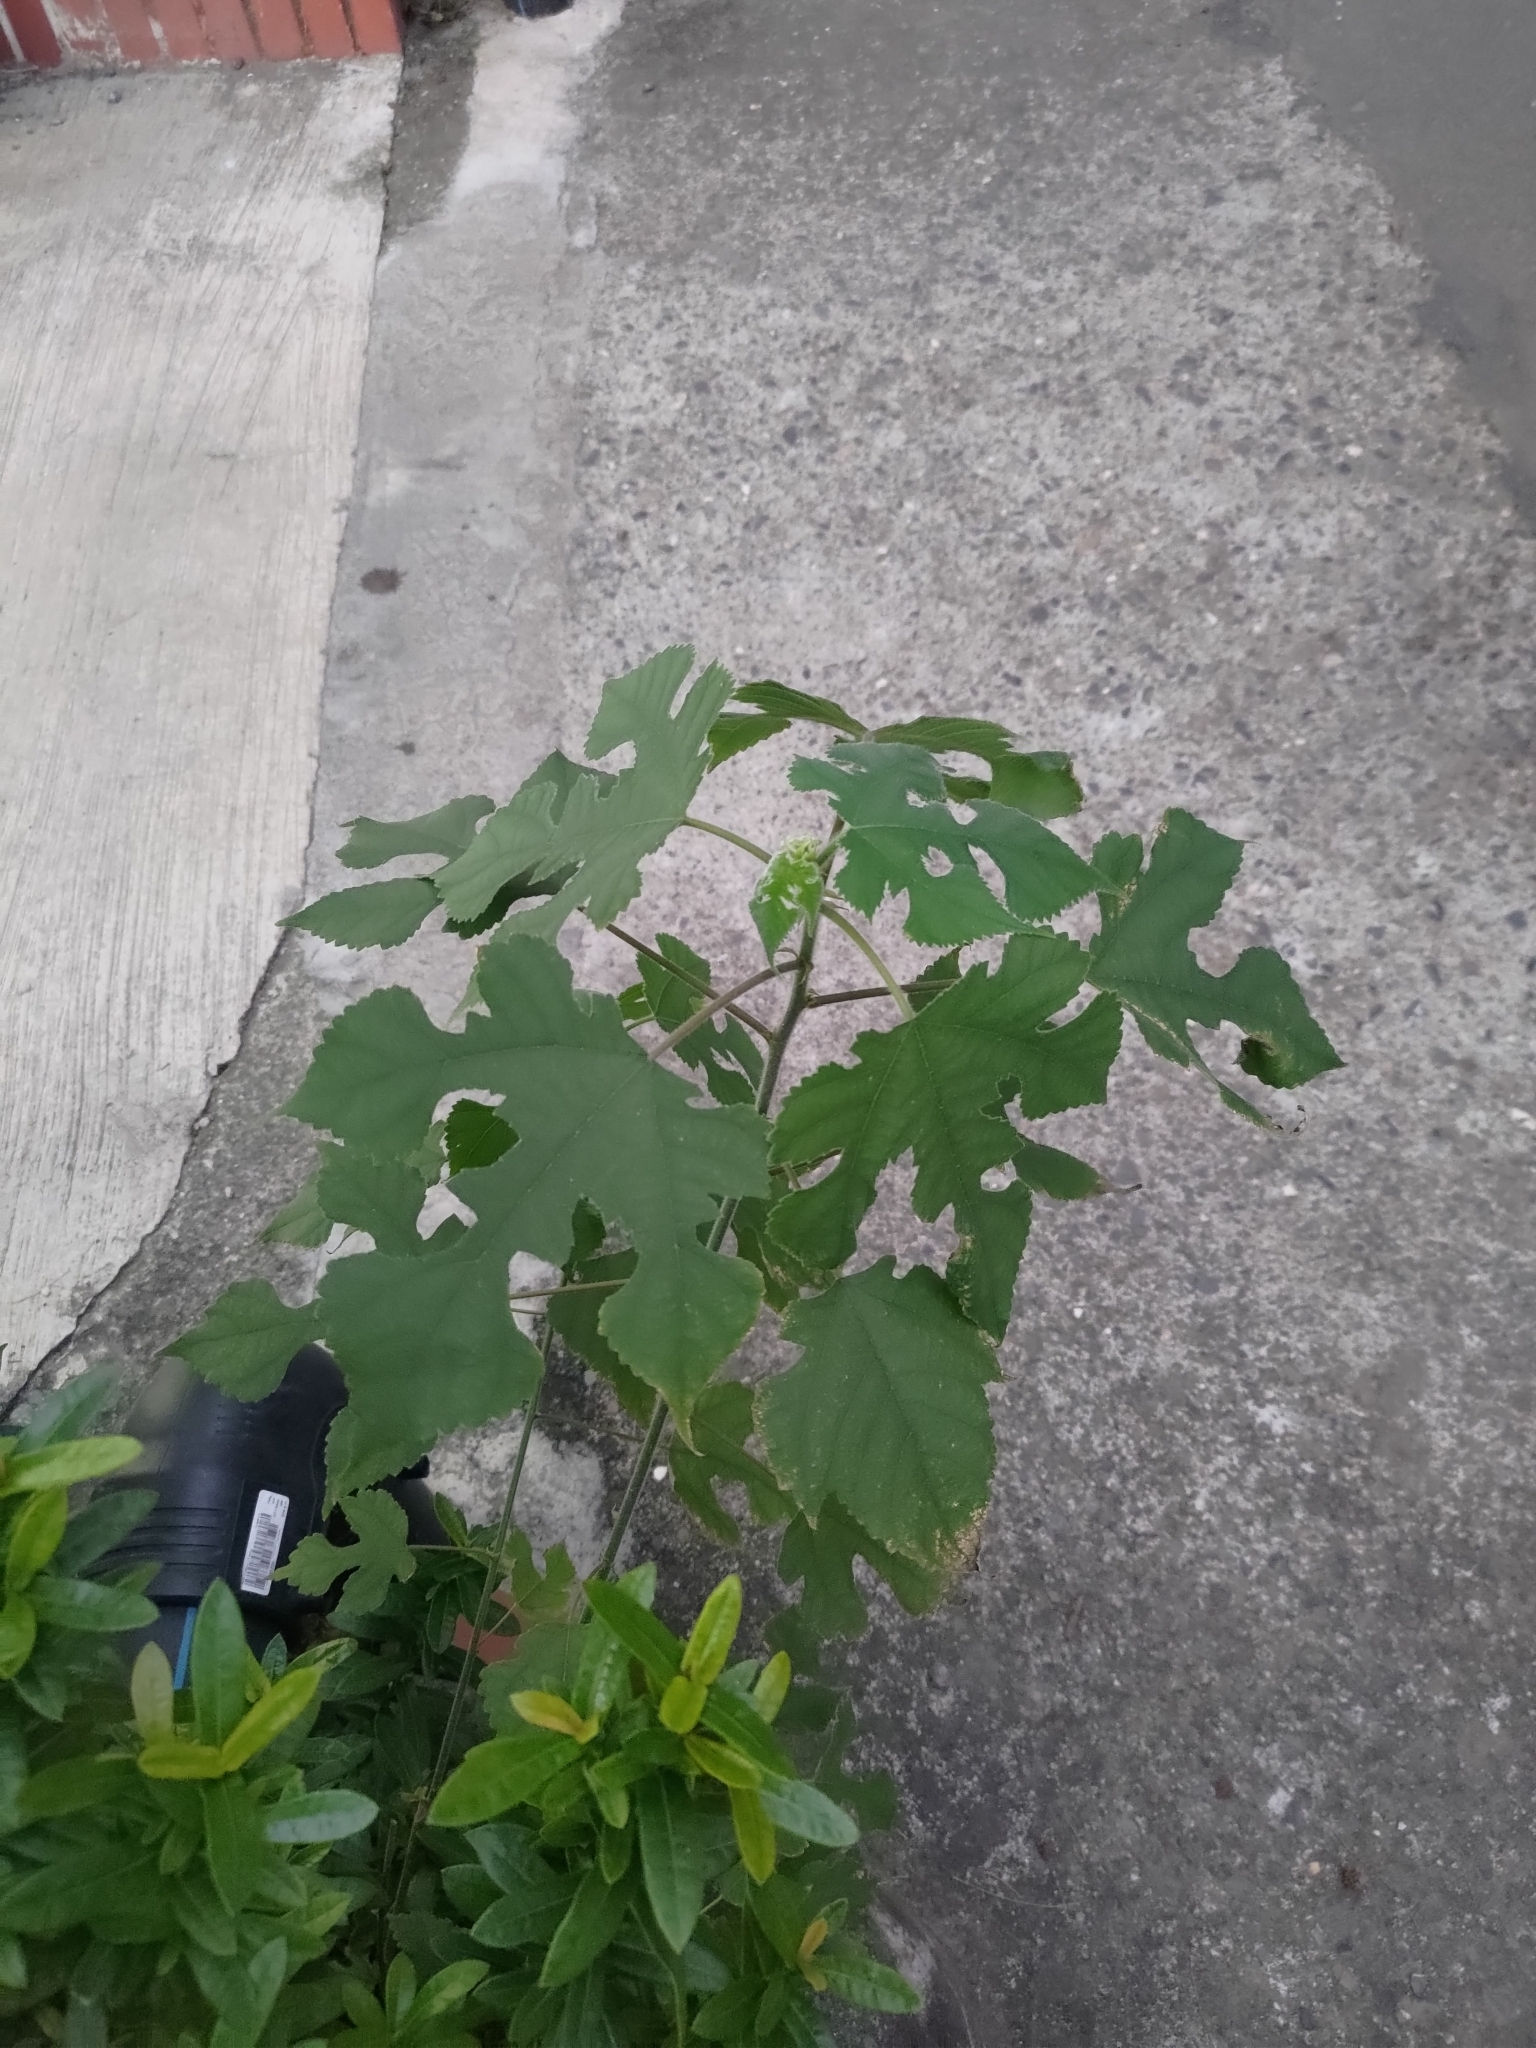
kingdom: Plantae
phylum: Tracheophyta
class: Magnoliopsida
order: Rosales
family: Moraceae
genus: Broussonetia
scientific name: Broussonetia papyrifera
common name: Paper mulberry
